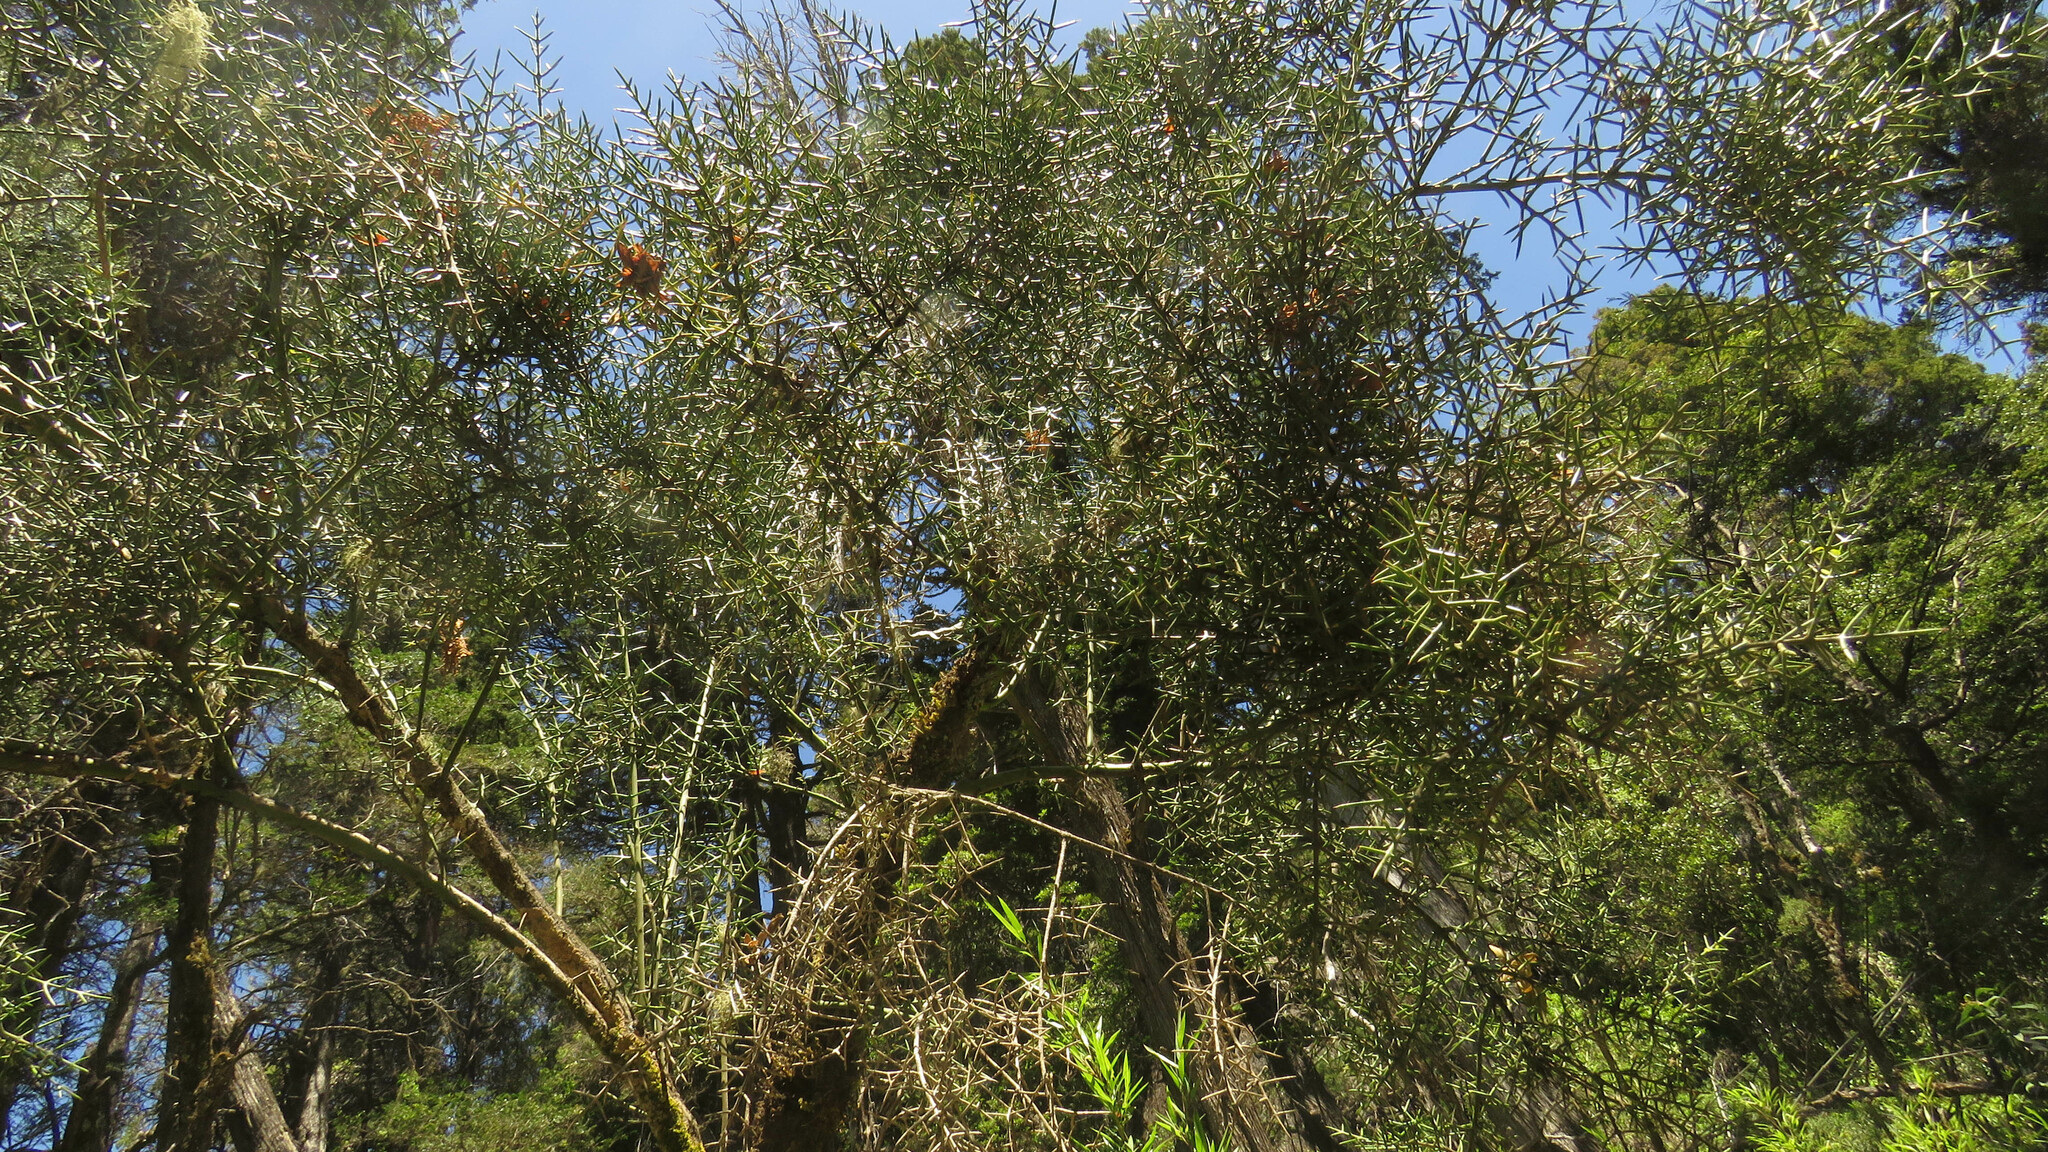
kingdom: Plantae
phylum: Tracheophyta
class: Magnoliopsida
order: Rosales
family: Rhamnaceae
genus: Colletia
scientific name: Colletia hystrix
